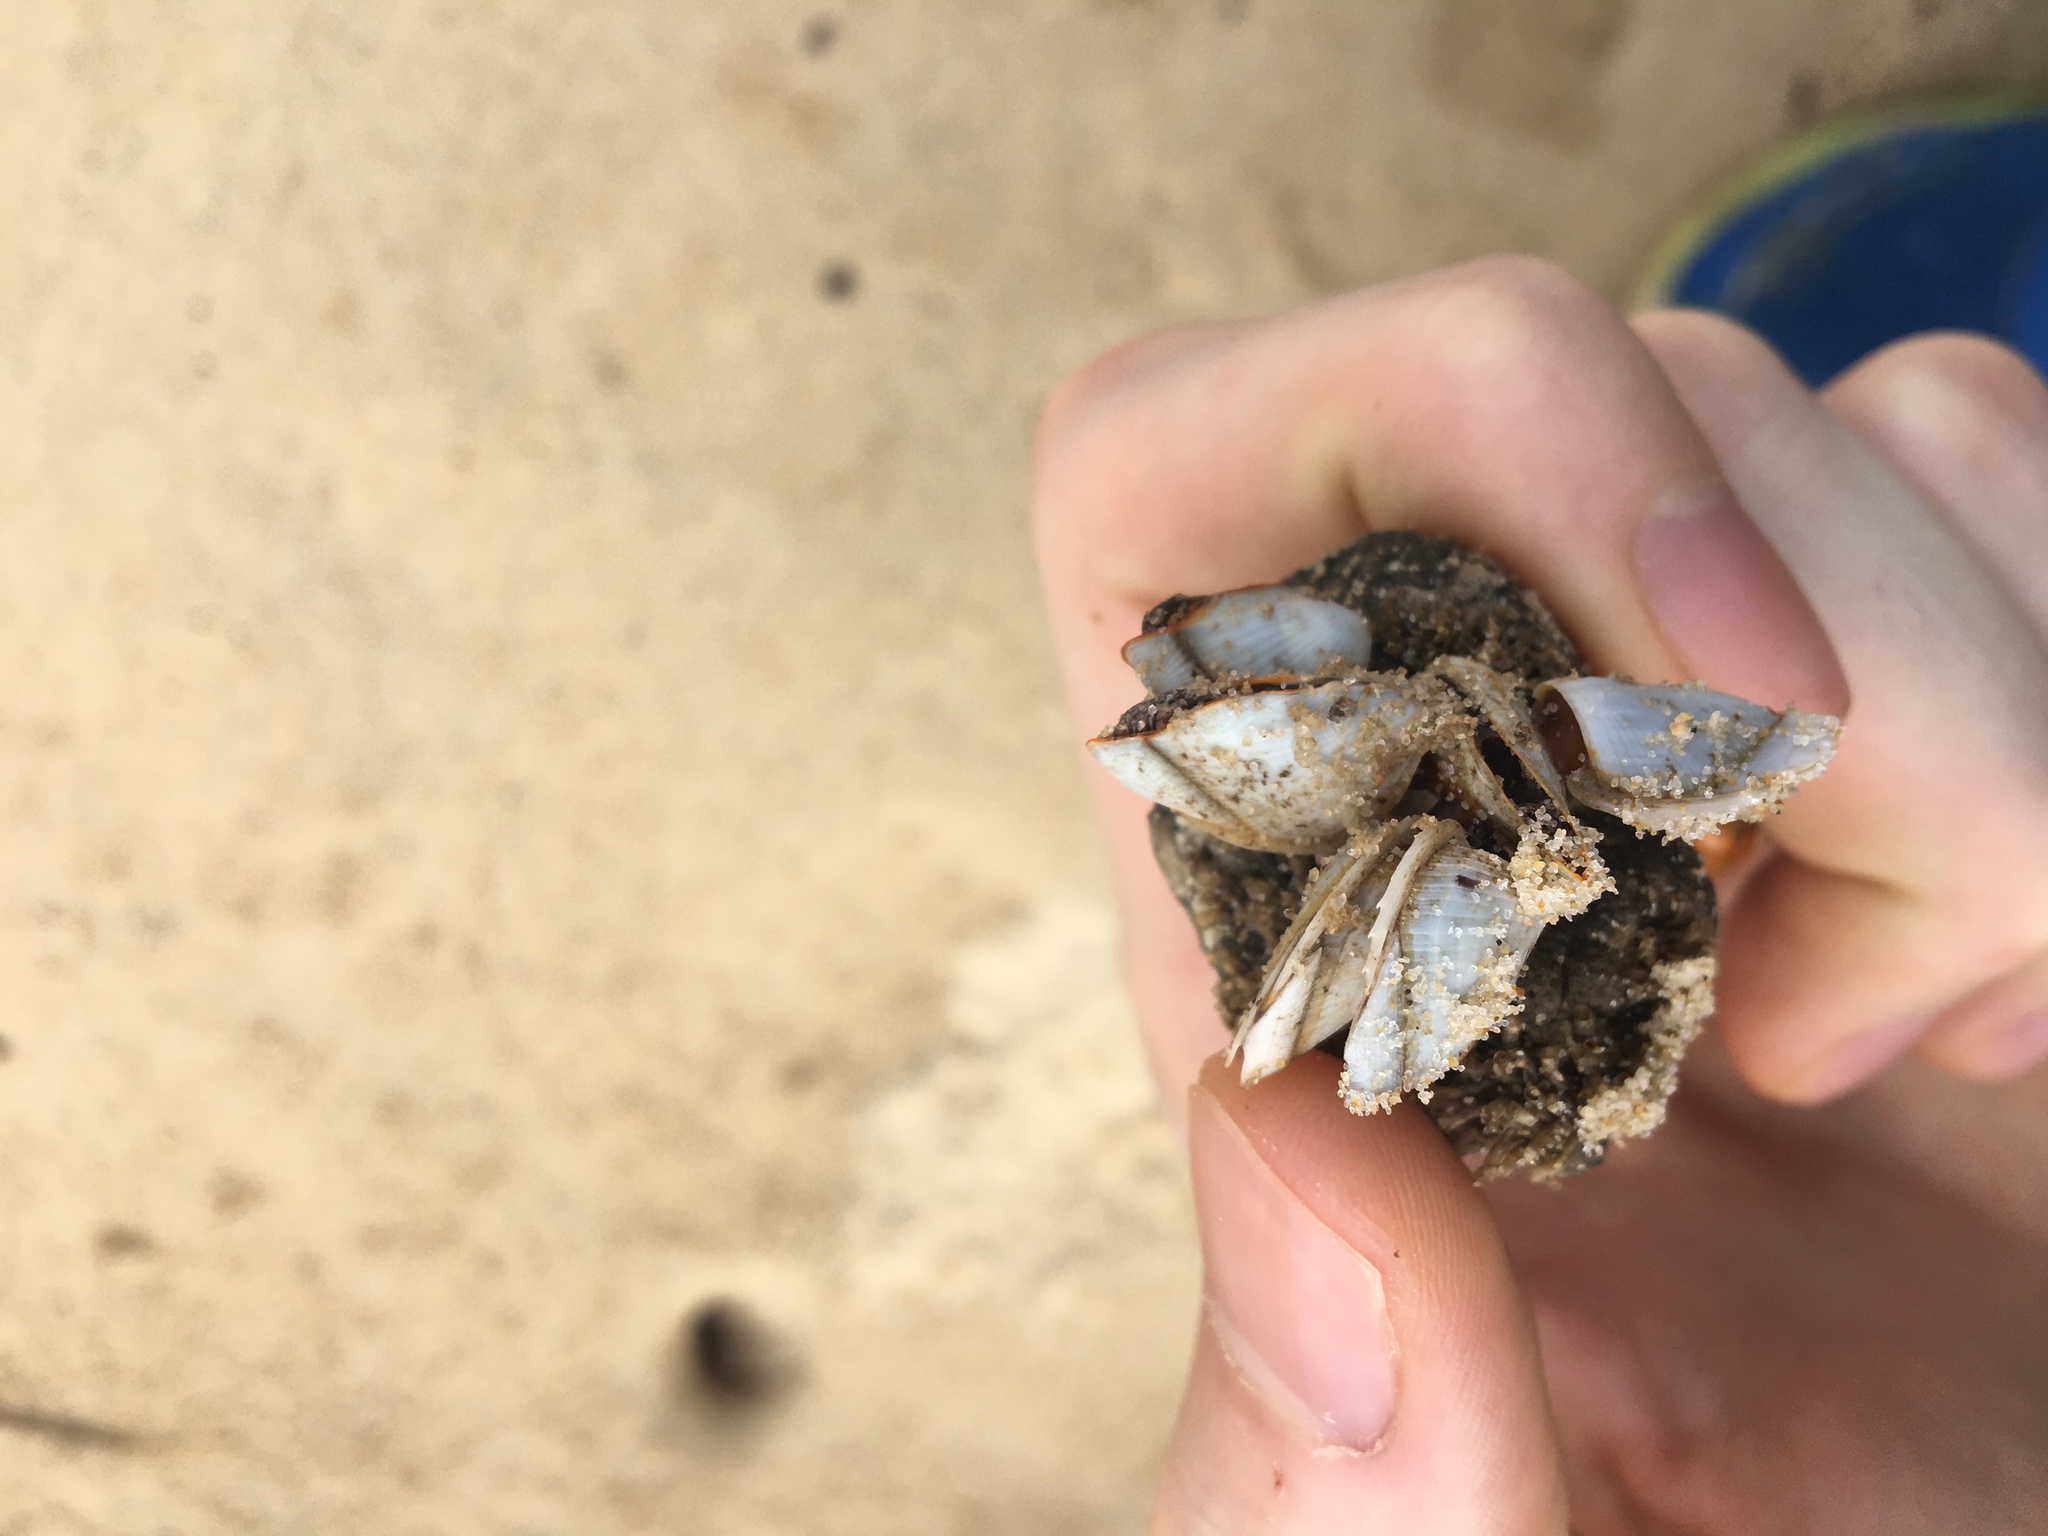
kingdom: Animalia
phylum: Arthropoda
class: Maxillopoda
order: Pedunculata
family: Lepadidae
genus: Lepas
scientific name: Lepas anserifera
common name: Goose barnacle
